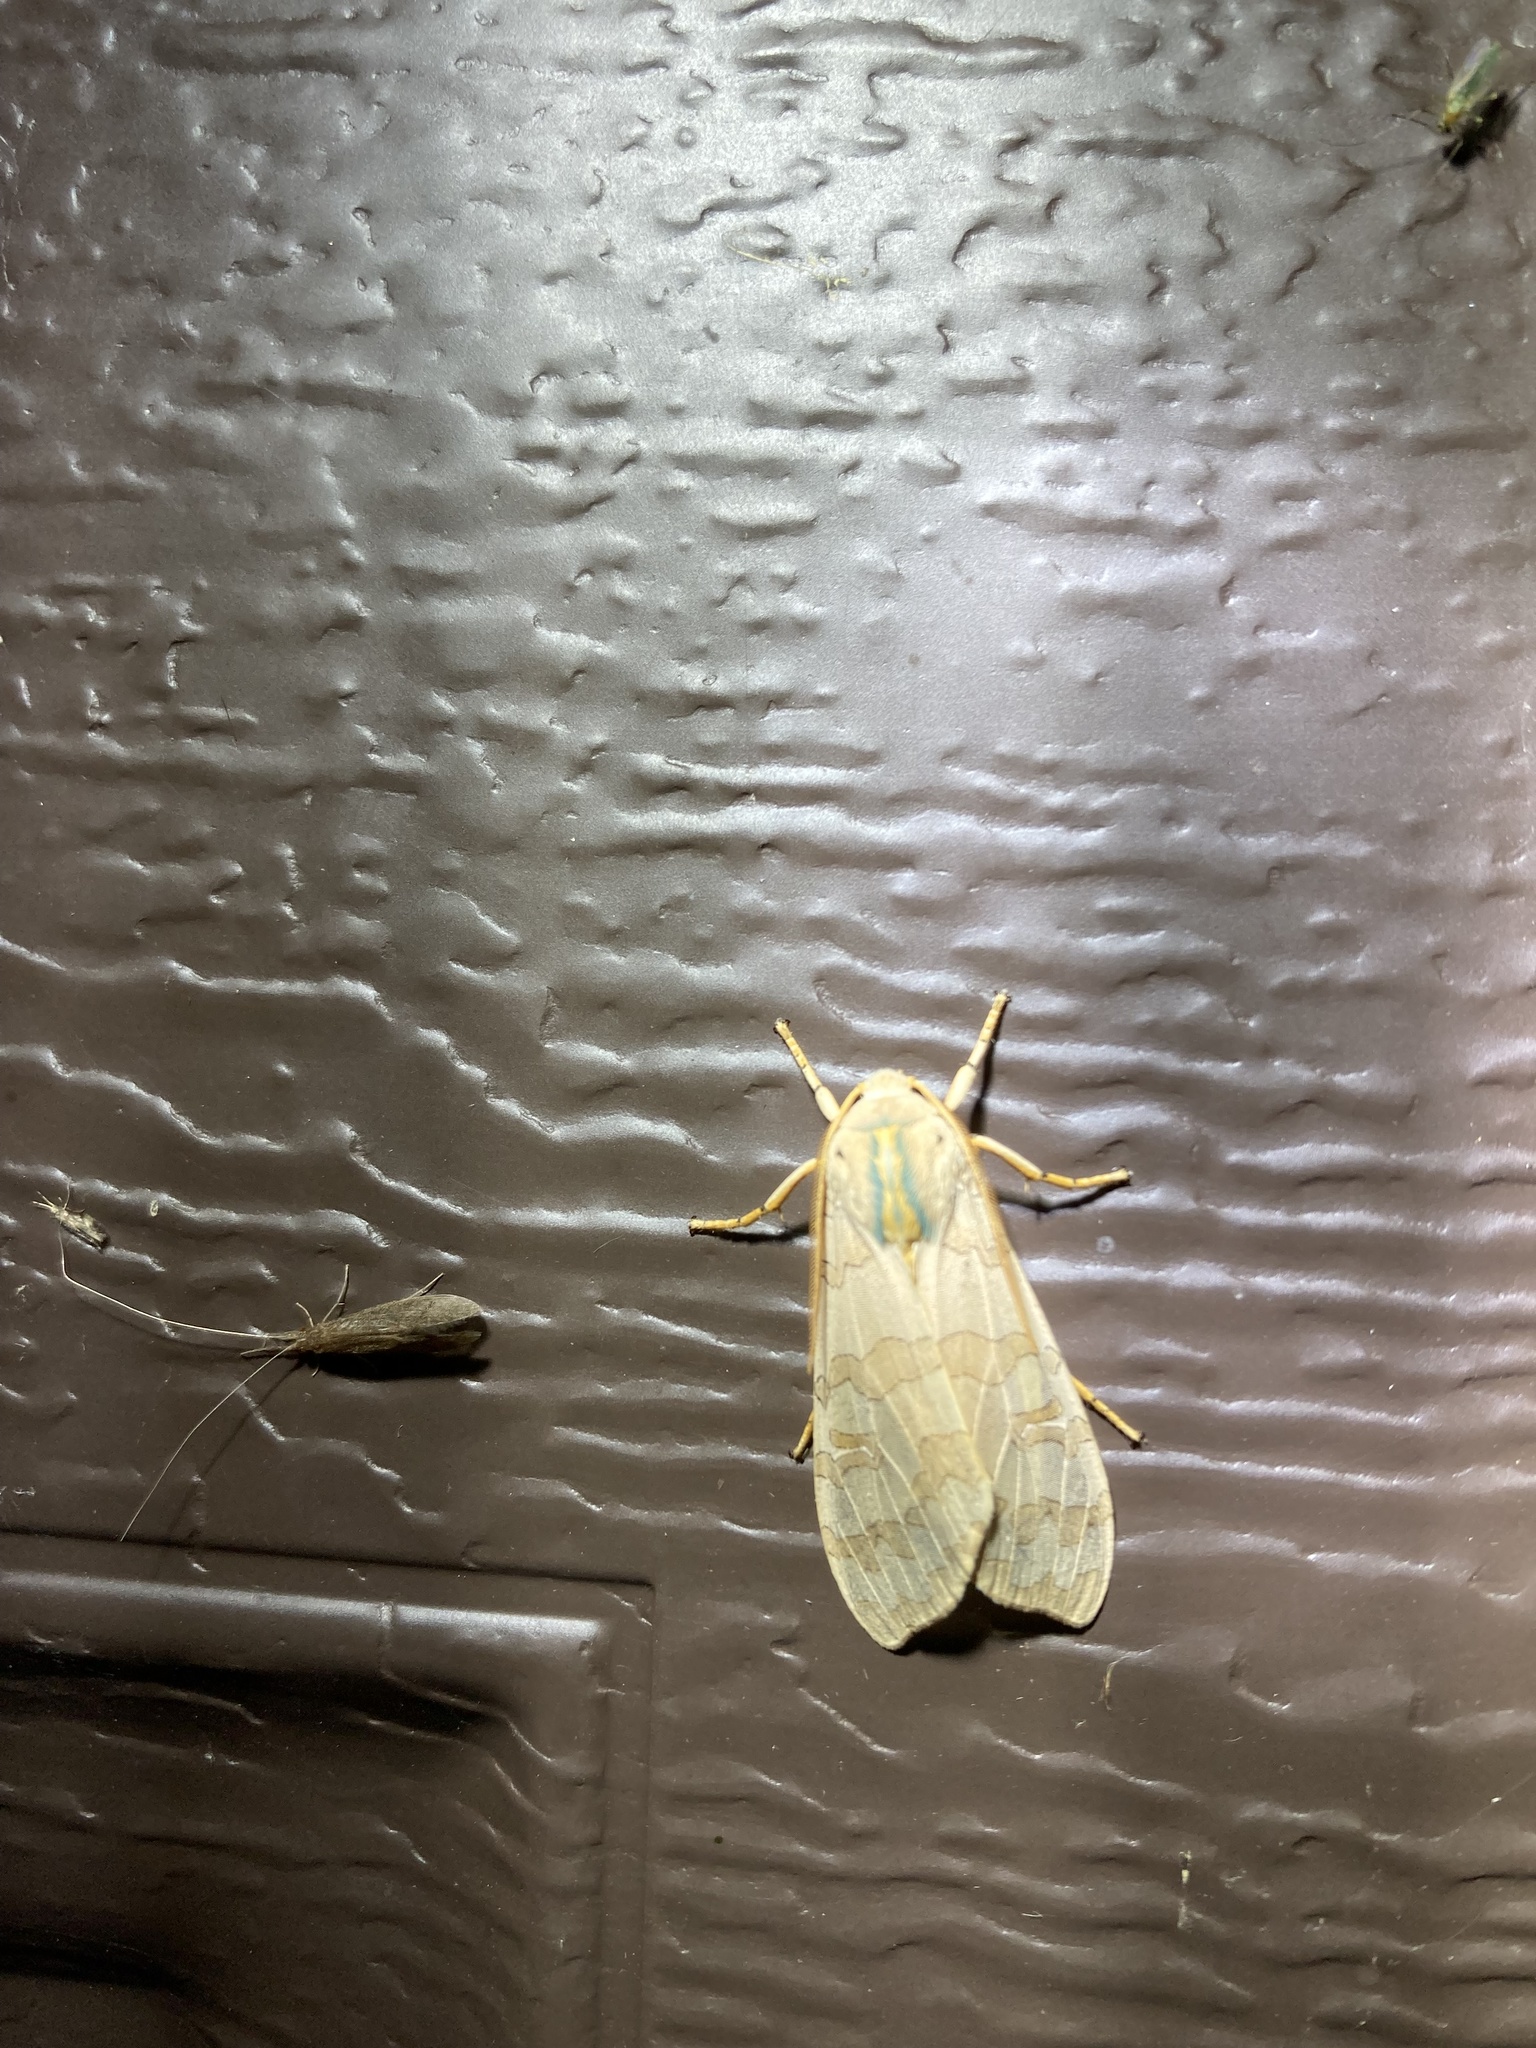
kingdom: Animalia
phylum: Arthropoda
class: Insecta
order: Lepidoptera
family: Erebidae
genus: Halysidota
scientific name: Halysidota tessellaris
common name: Banded tussock moth
